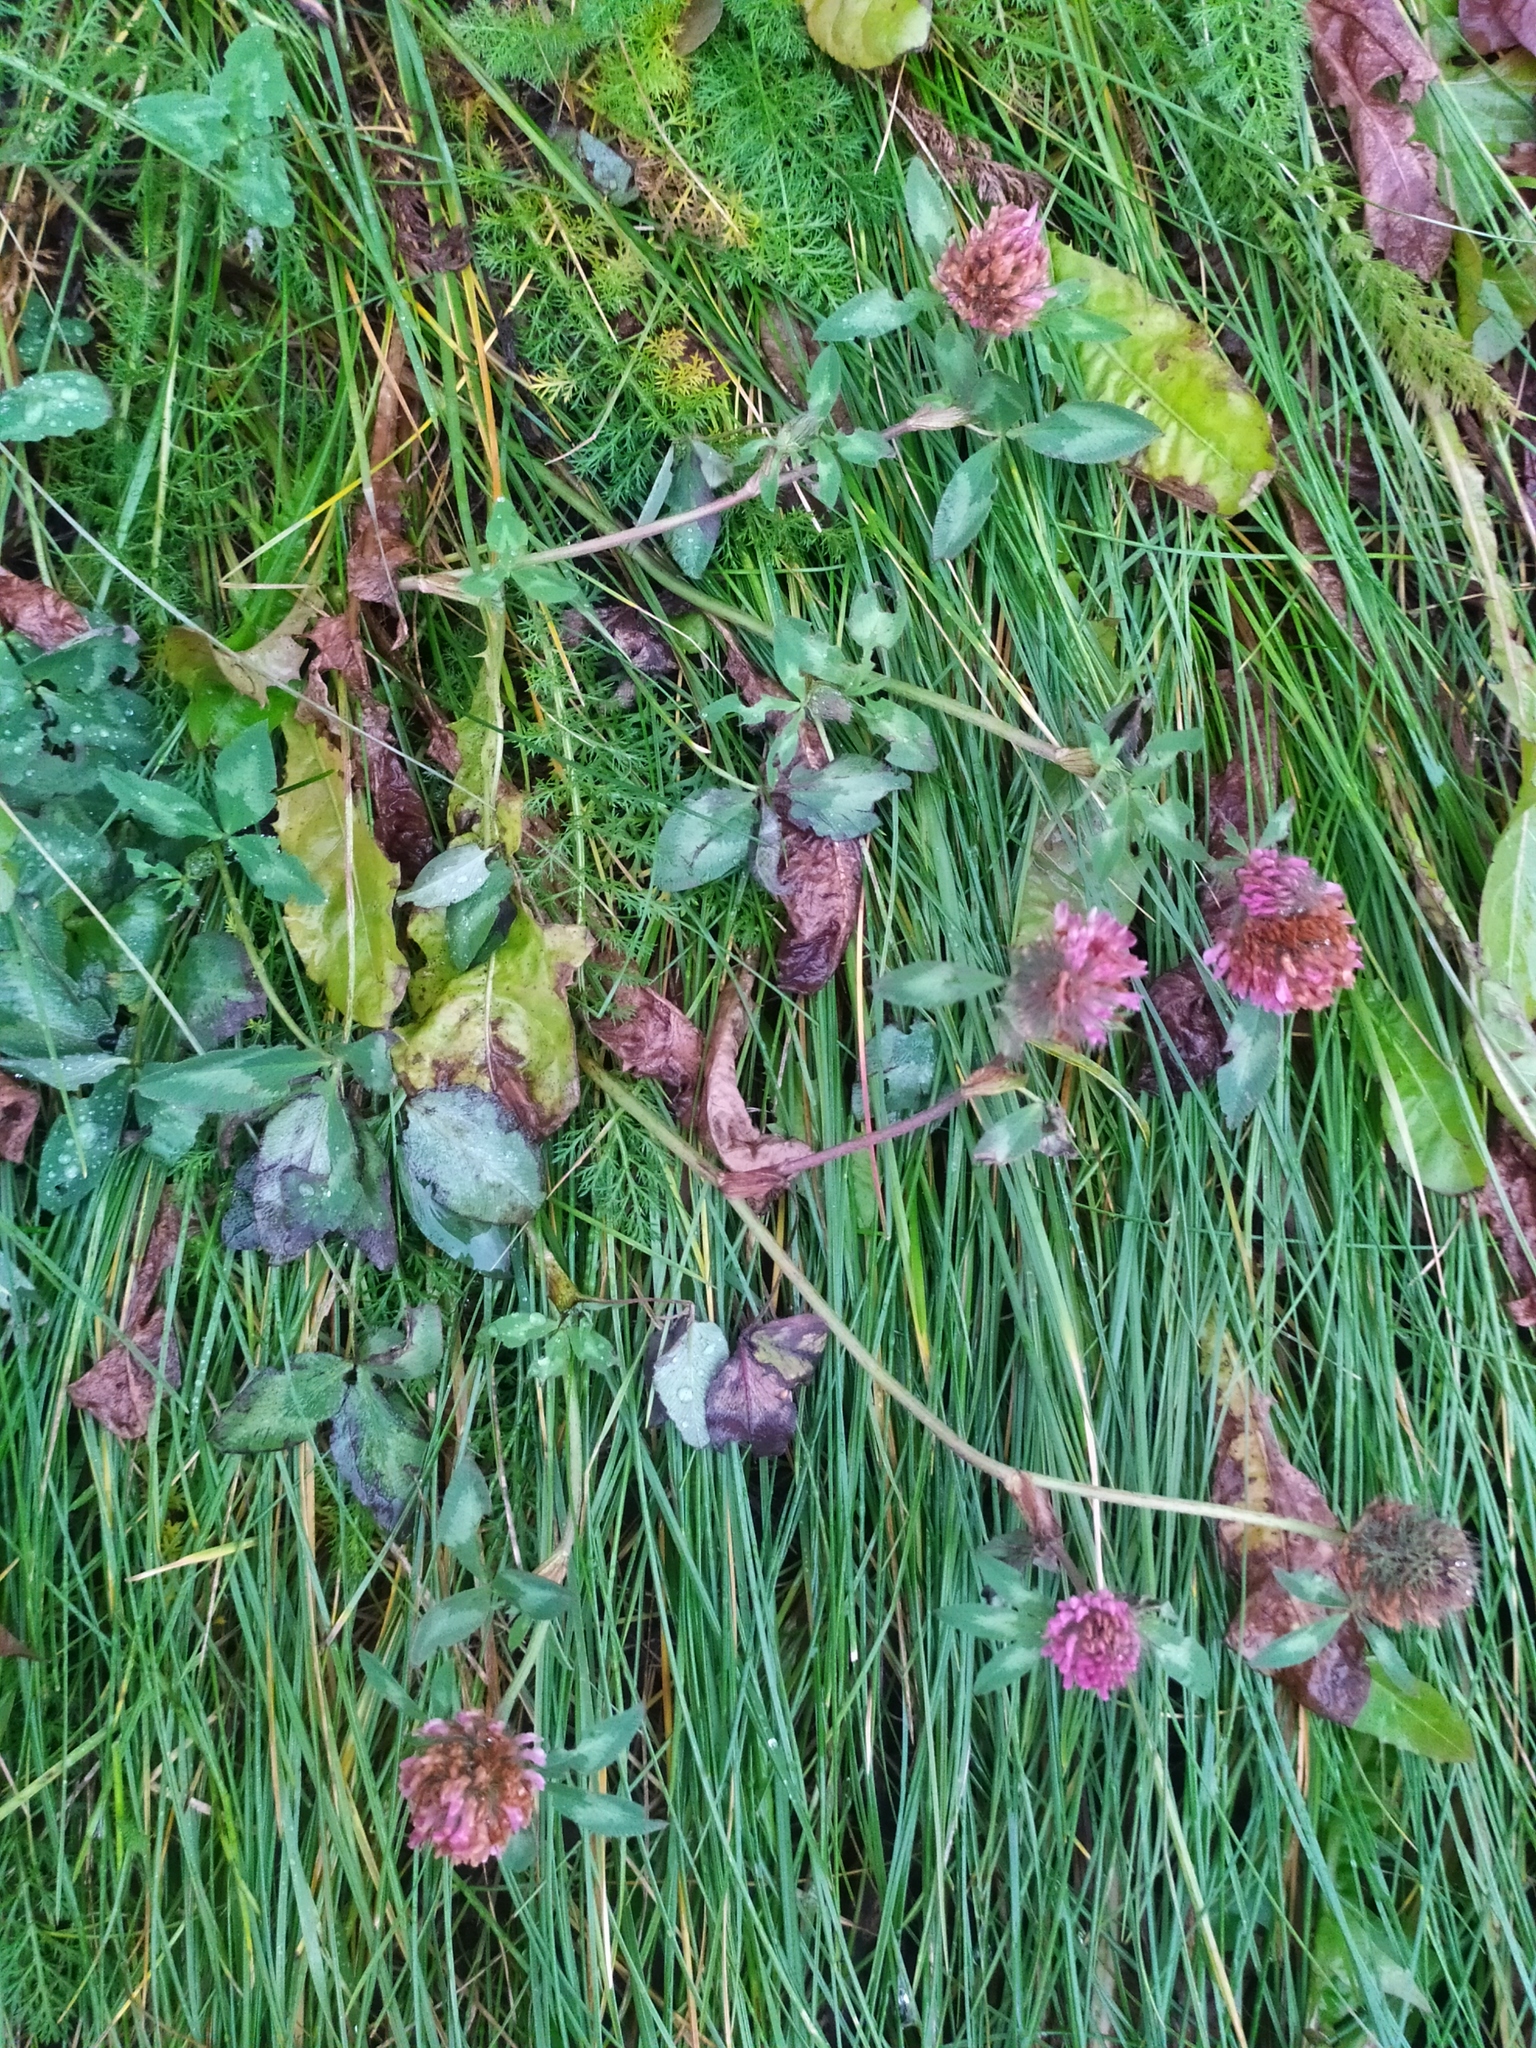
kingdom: Plantae
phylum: Tracheophyta
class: Magnoliopsida
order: Fabales
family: Fabaceae
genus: Trifolium
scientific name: Trifolium pratense
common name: Red clover
